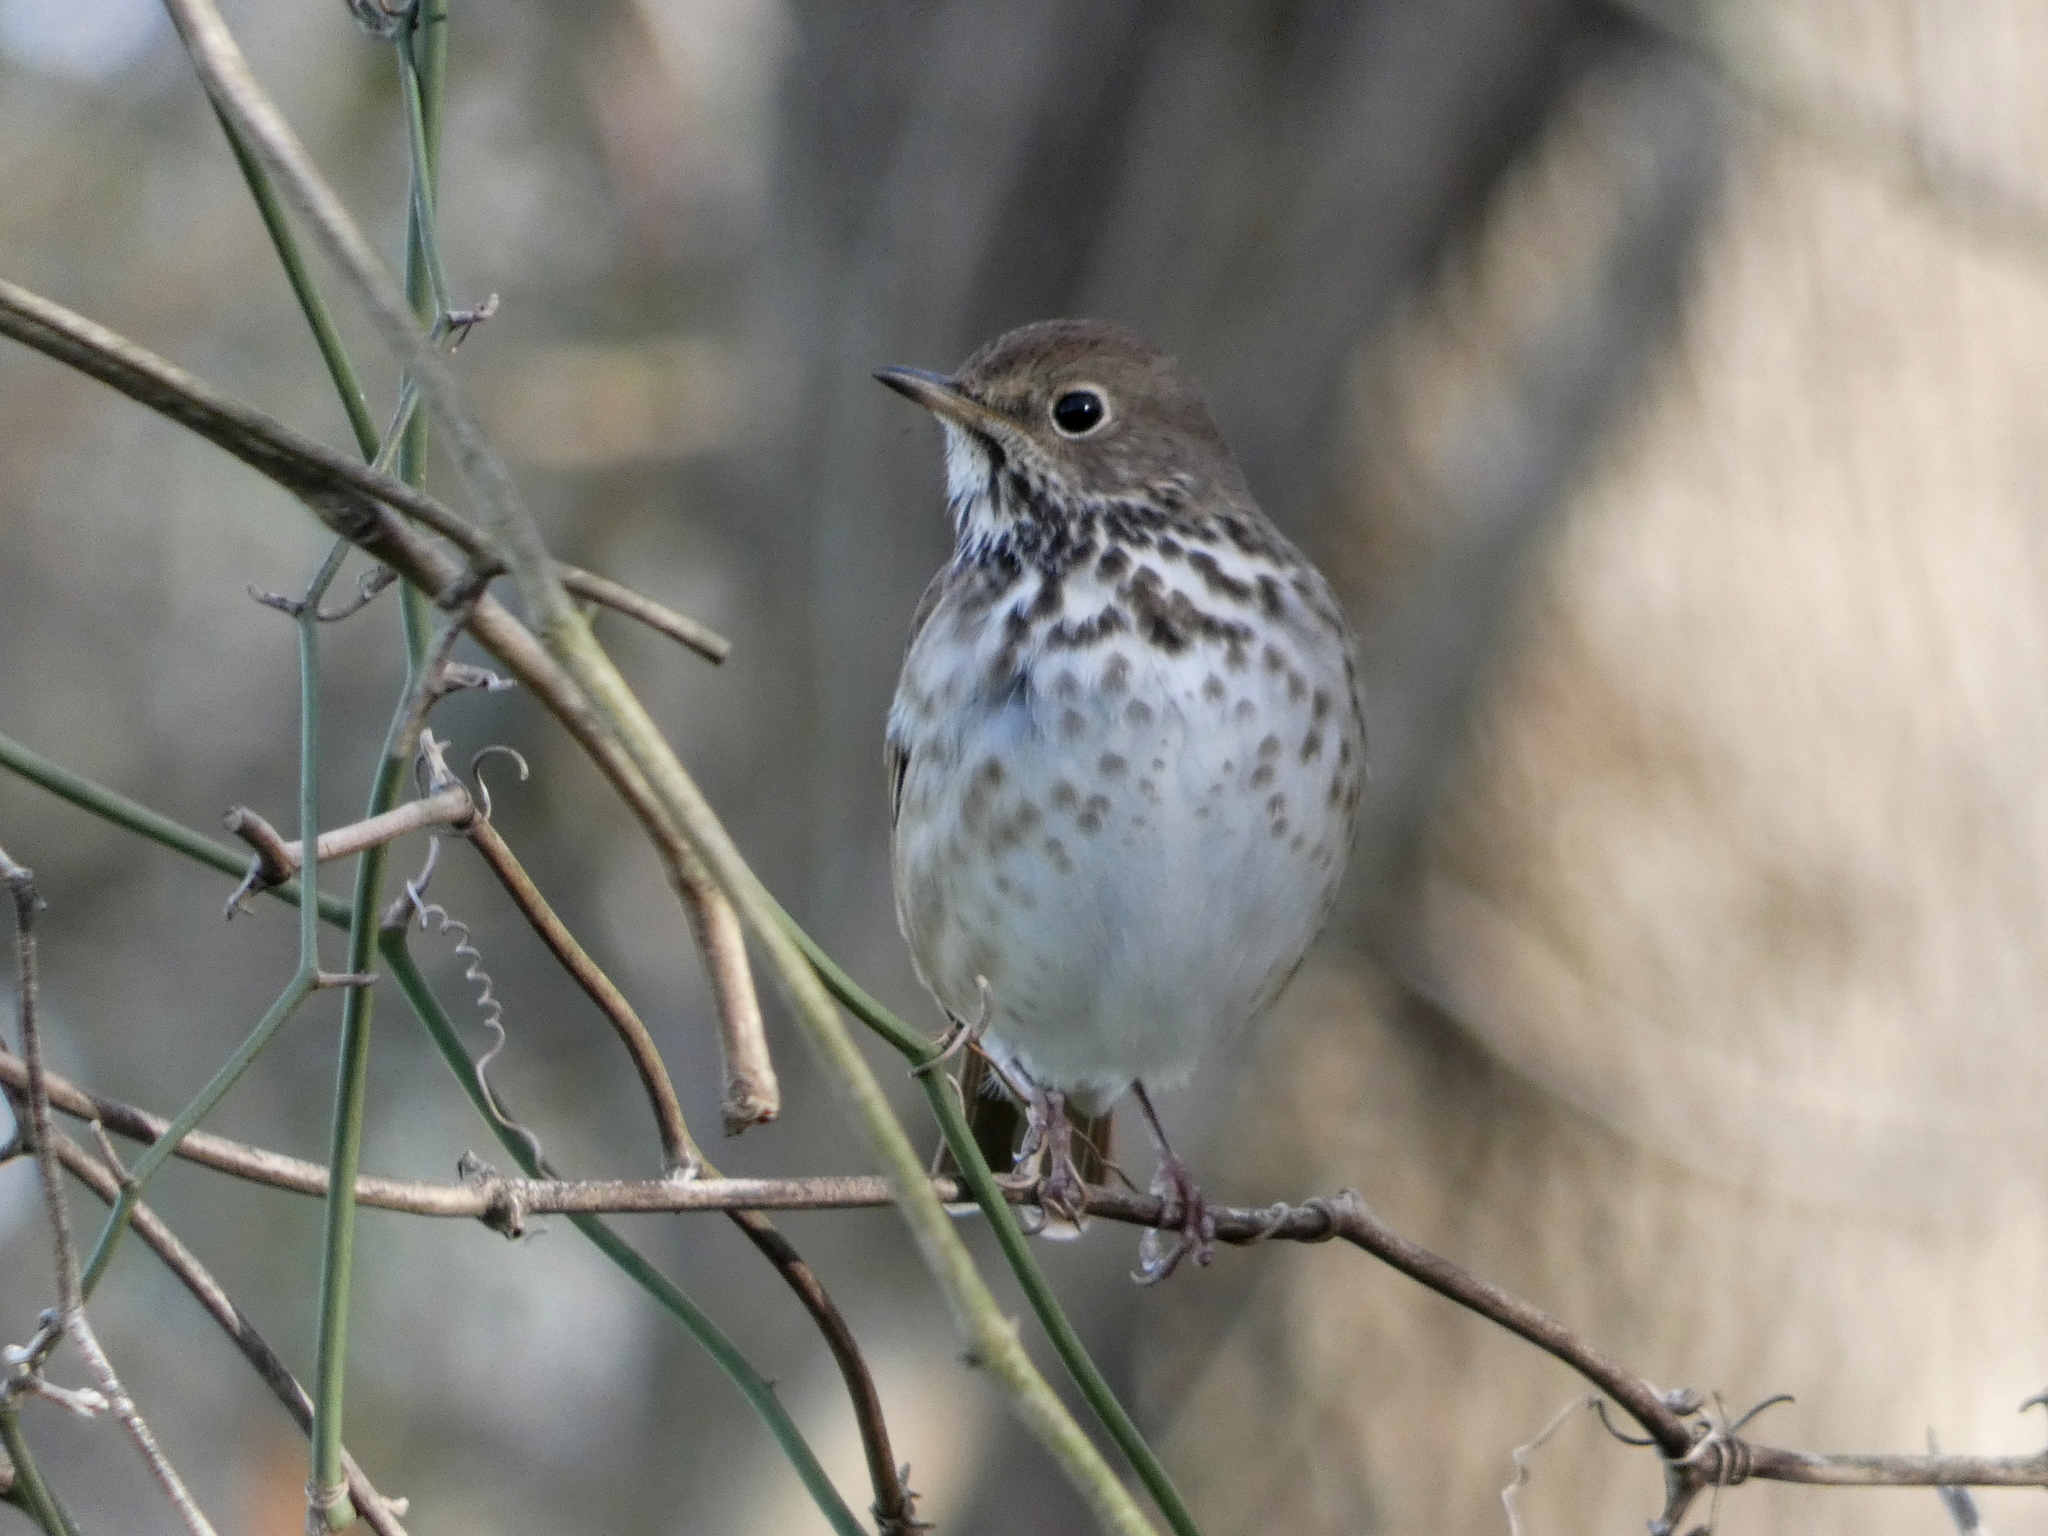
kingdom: Animalia
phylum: Chordata
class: Aves
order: Passeriformes
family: Turdidae
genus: Catharus
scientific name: Catharus guttatus
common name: Hermit thrush
